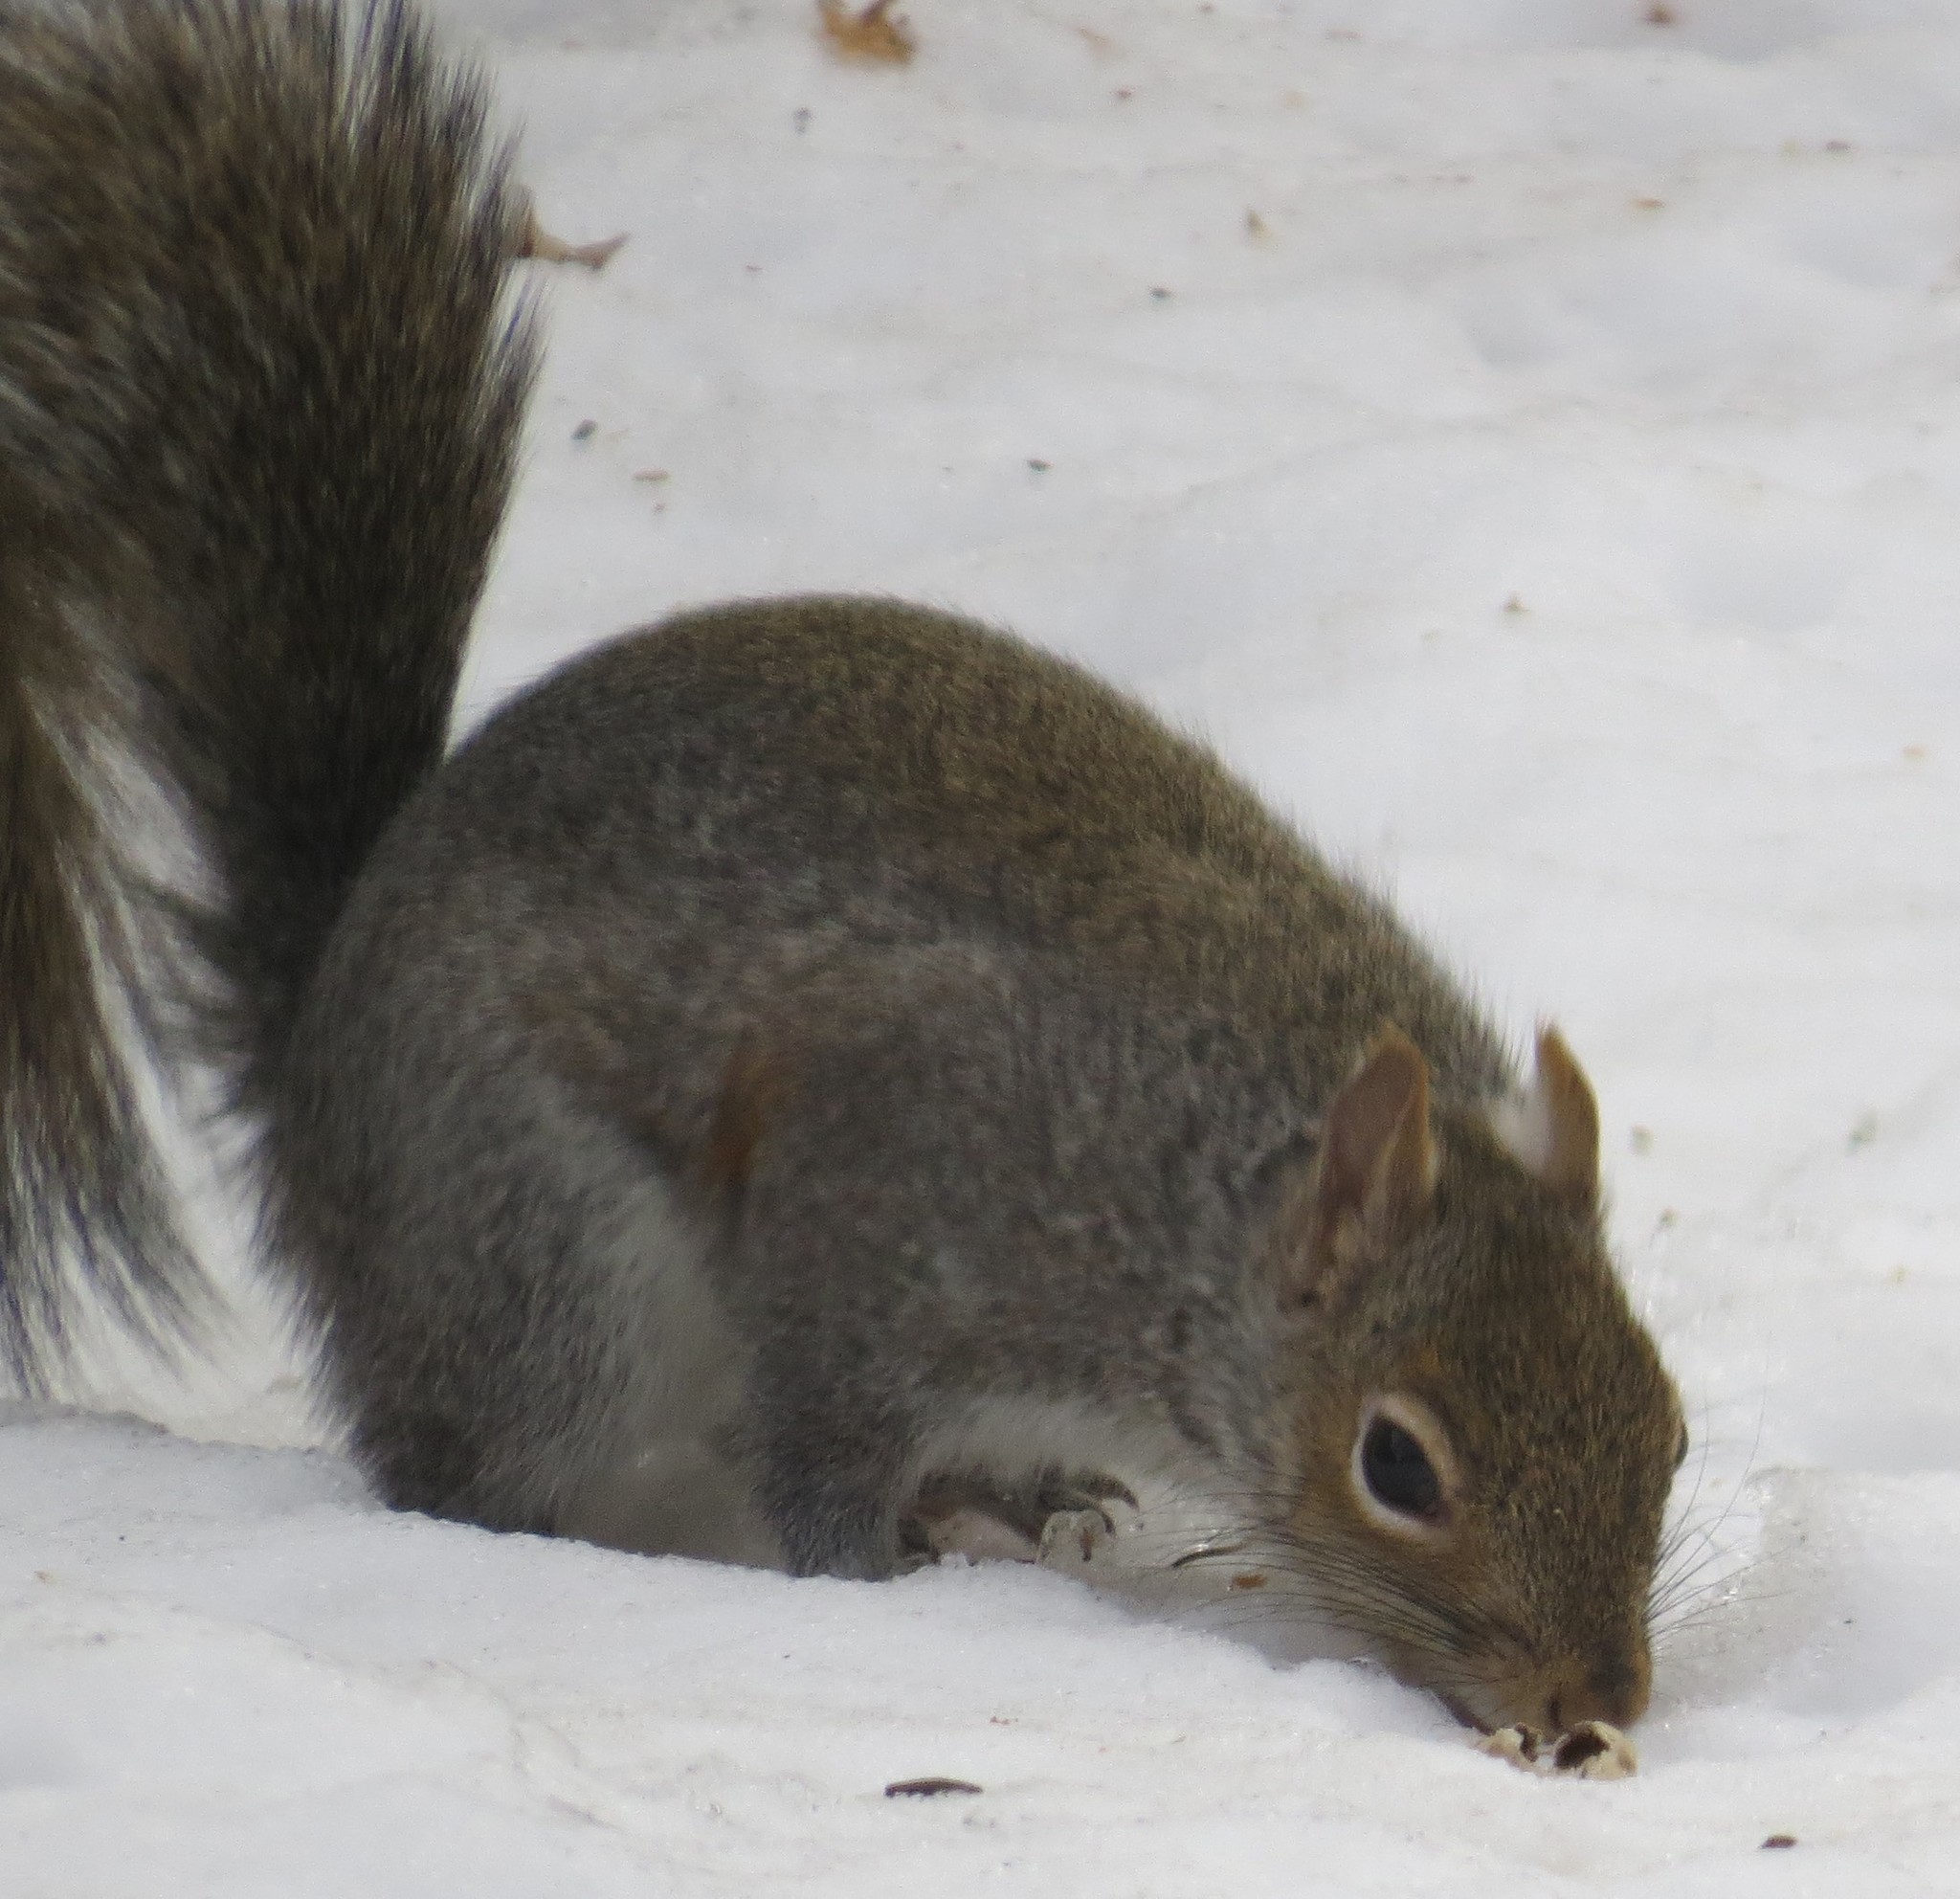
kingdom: Animalia
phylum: Chordata
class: Mammalia
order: Rodentia
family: Sciuridae
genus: Sciurus
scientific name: Sciurus carolinensis
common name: Eastern gray squirrel
